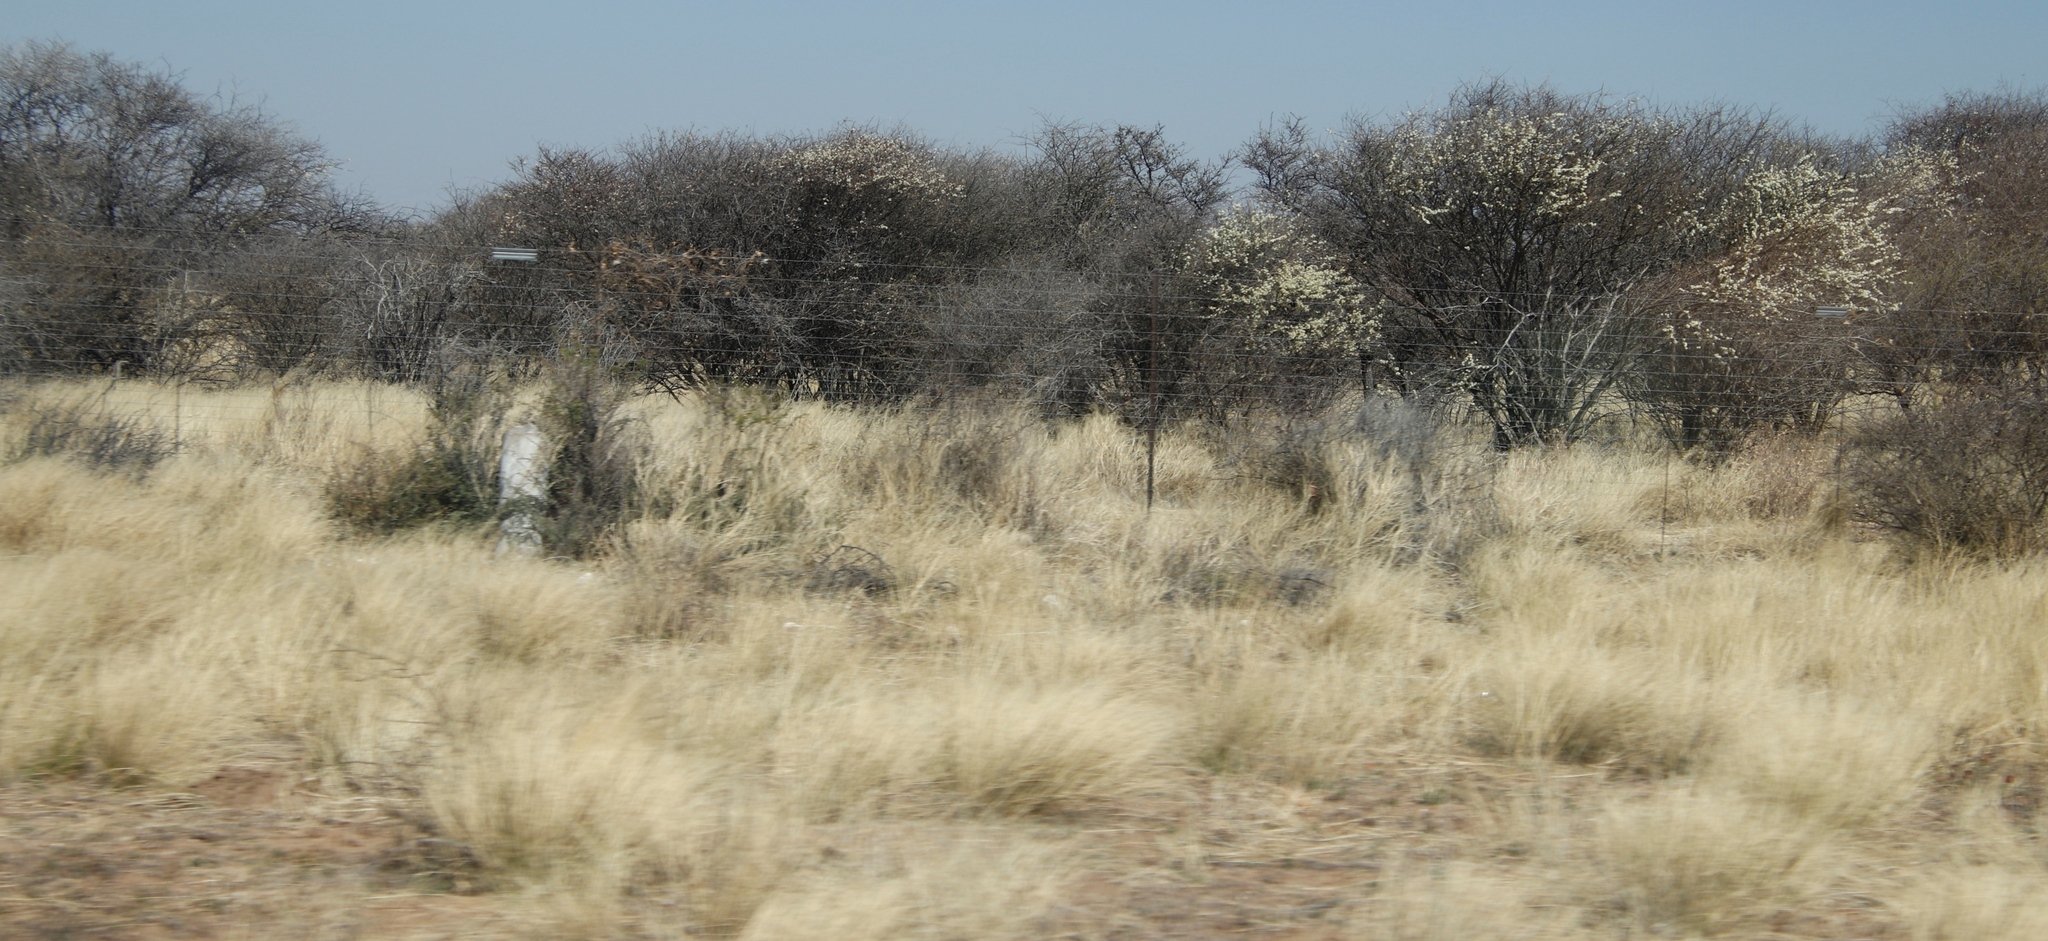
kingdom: Plantae
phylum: Tracheophyta
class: Magnoliopsida
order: Fabales
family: Fabaceae
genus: Senegalia
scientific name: Senegalia mellifera
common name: Hookthorn
